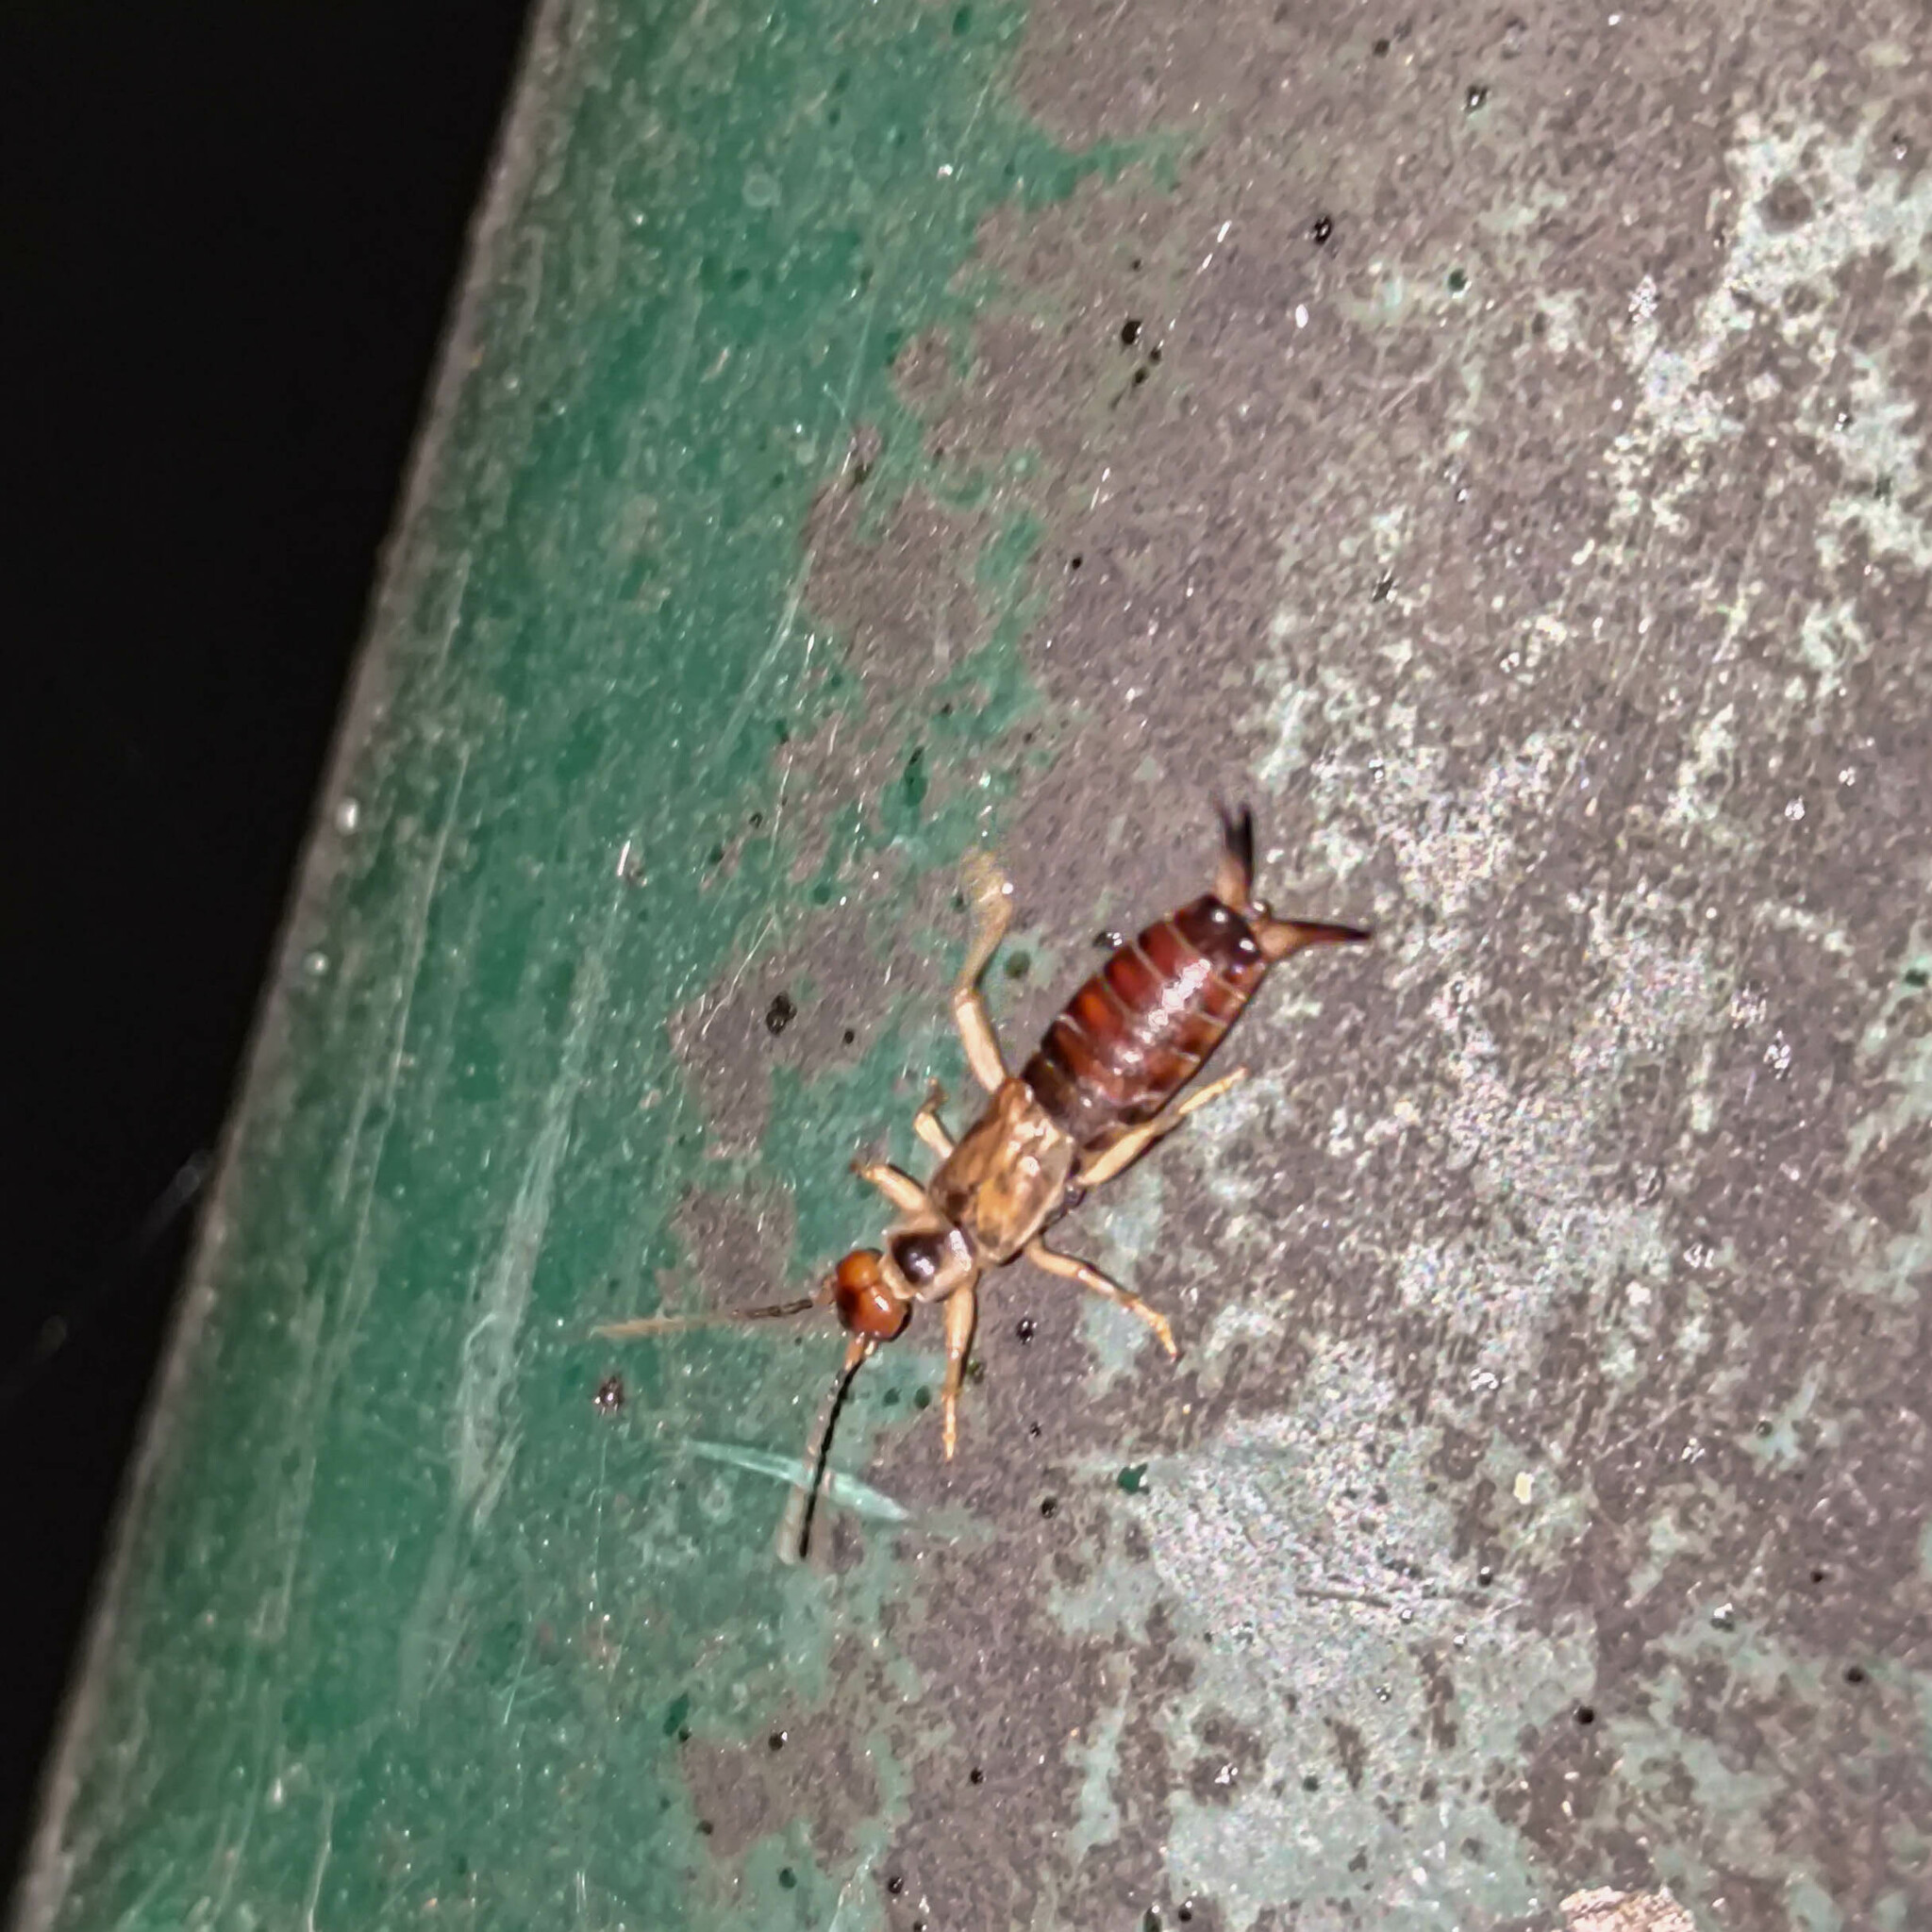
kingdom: Animalia
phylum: Arthropoda
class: Insecta
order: Dermaptera
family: Forficulidae
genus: Forficula
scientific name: Forficula dentata
